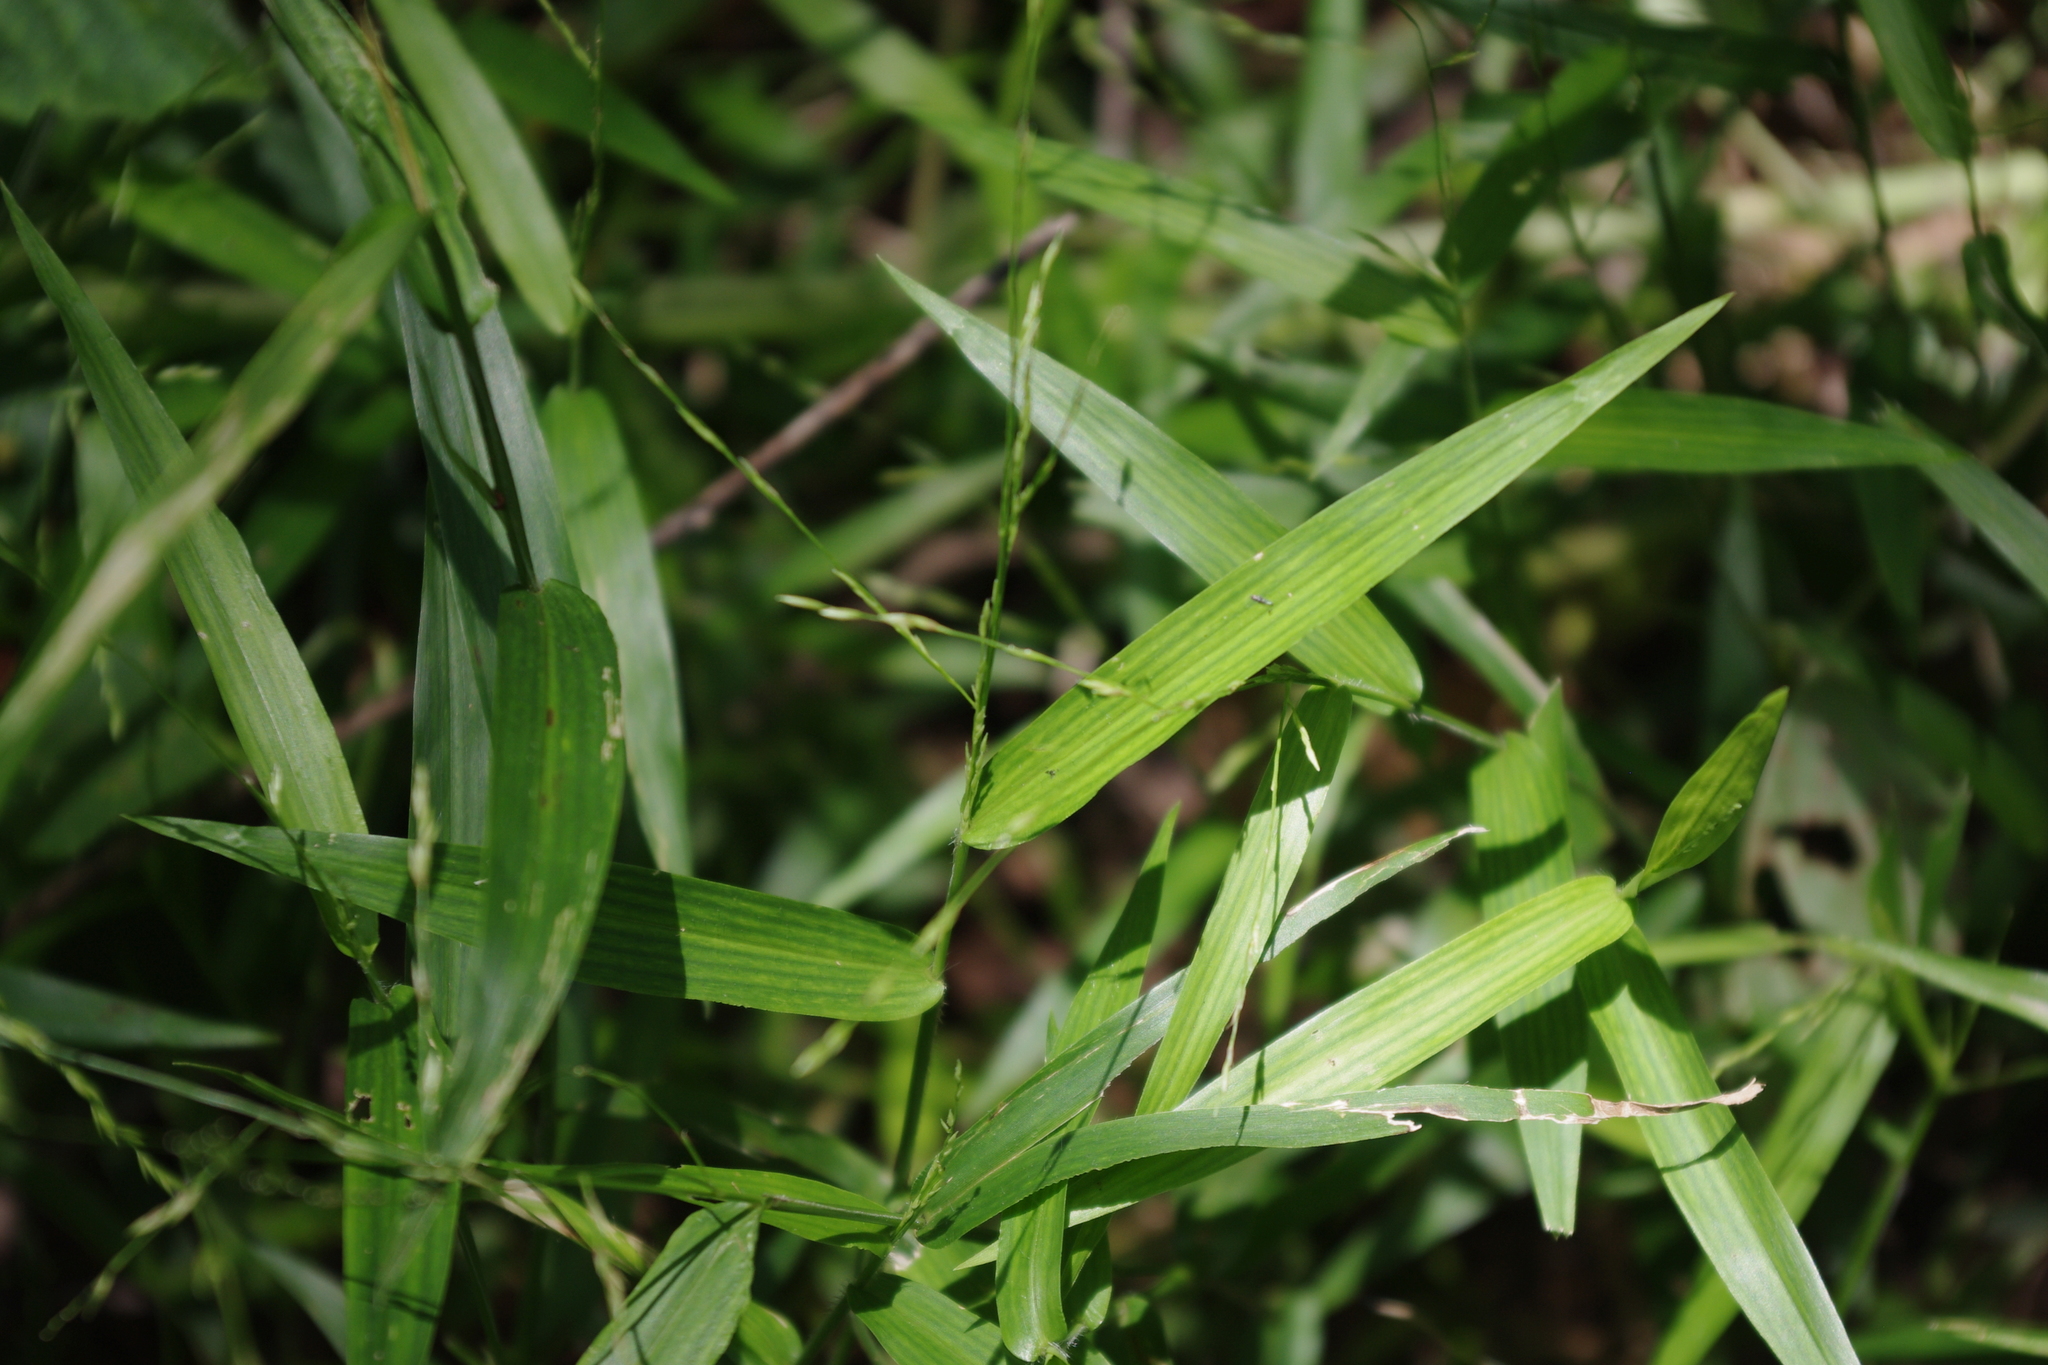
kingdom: Plantae
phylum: Tracheophyta
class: Liliopsida
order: Poales
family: Poaceae
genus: Ottochloa
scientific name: Ottochloa nodosa
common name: Slender-panic grass
